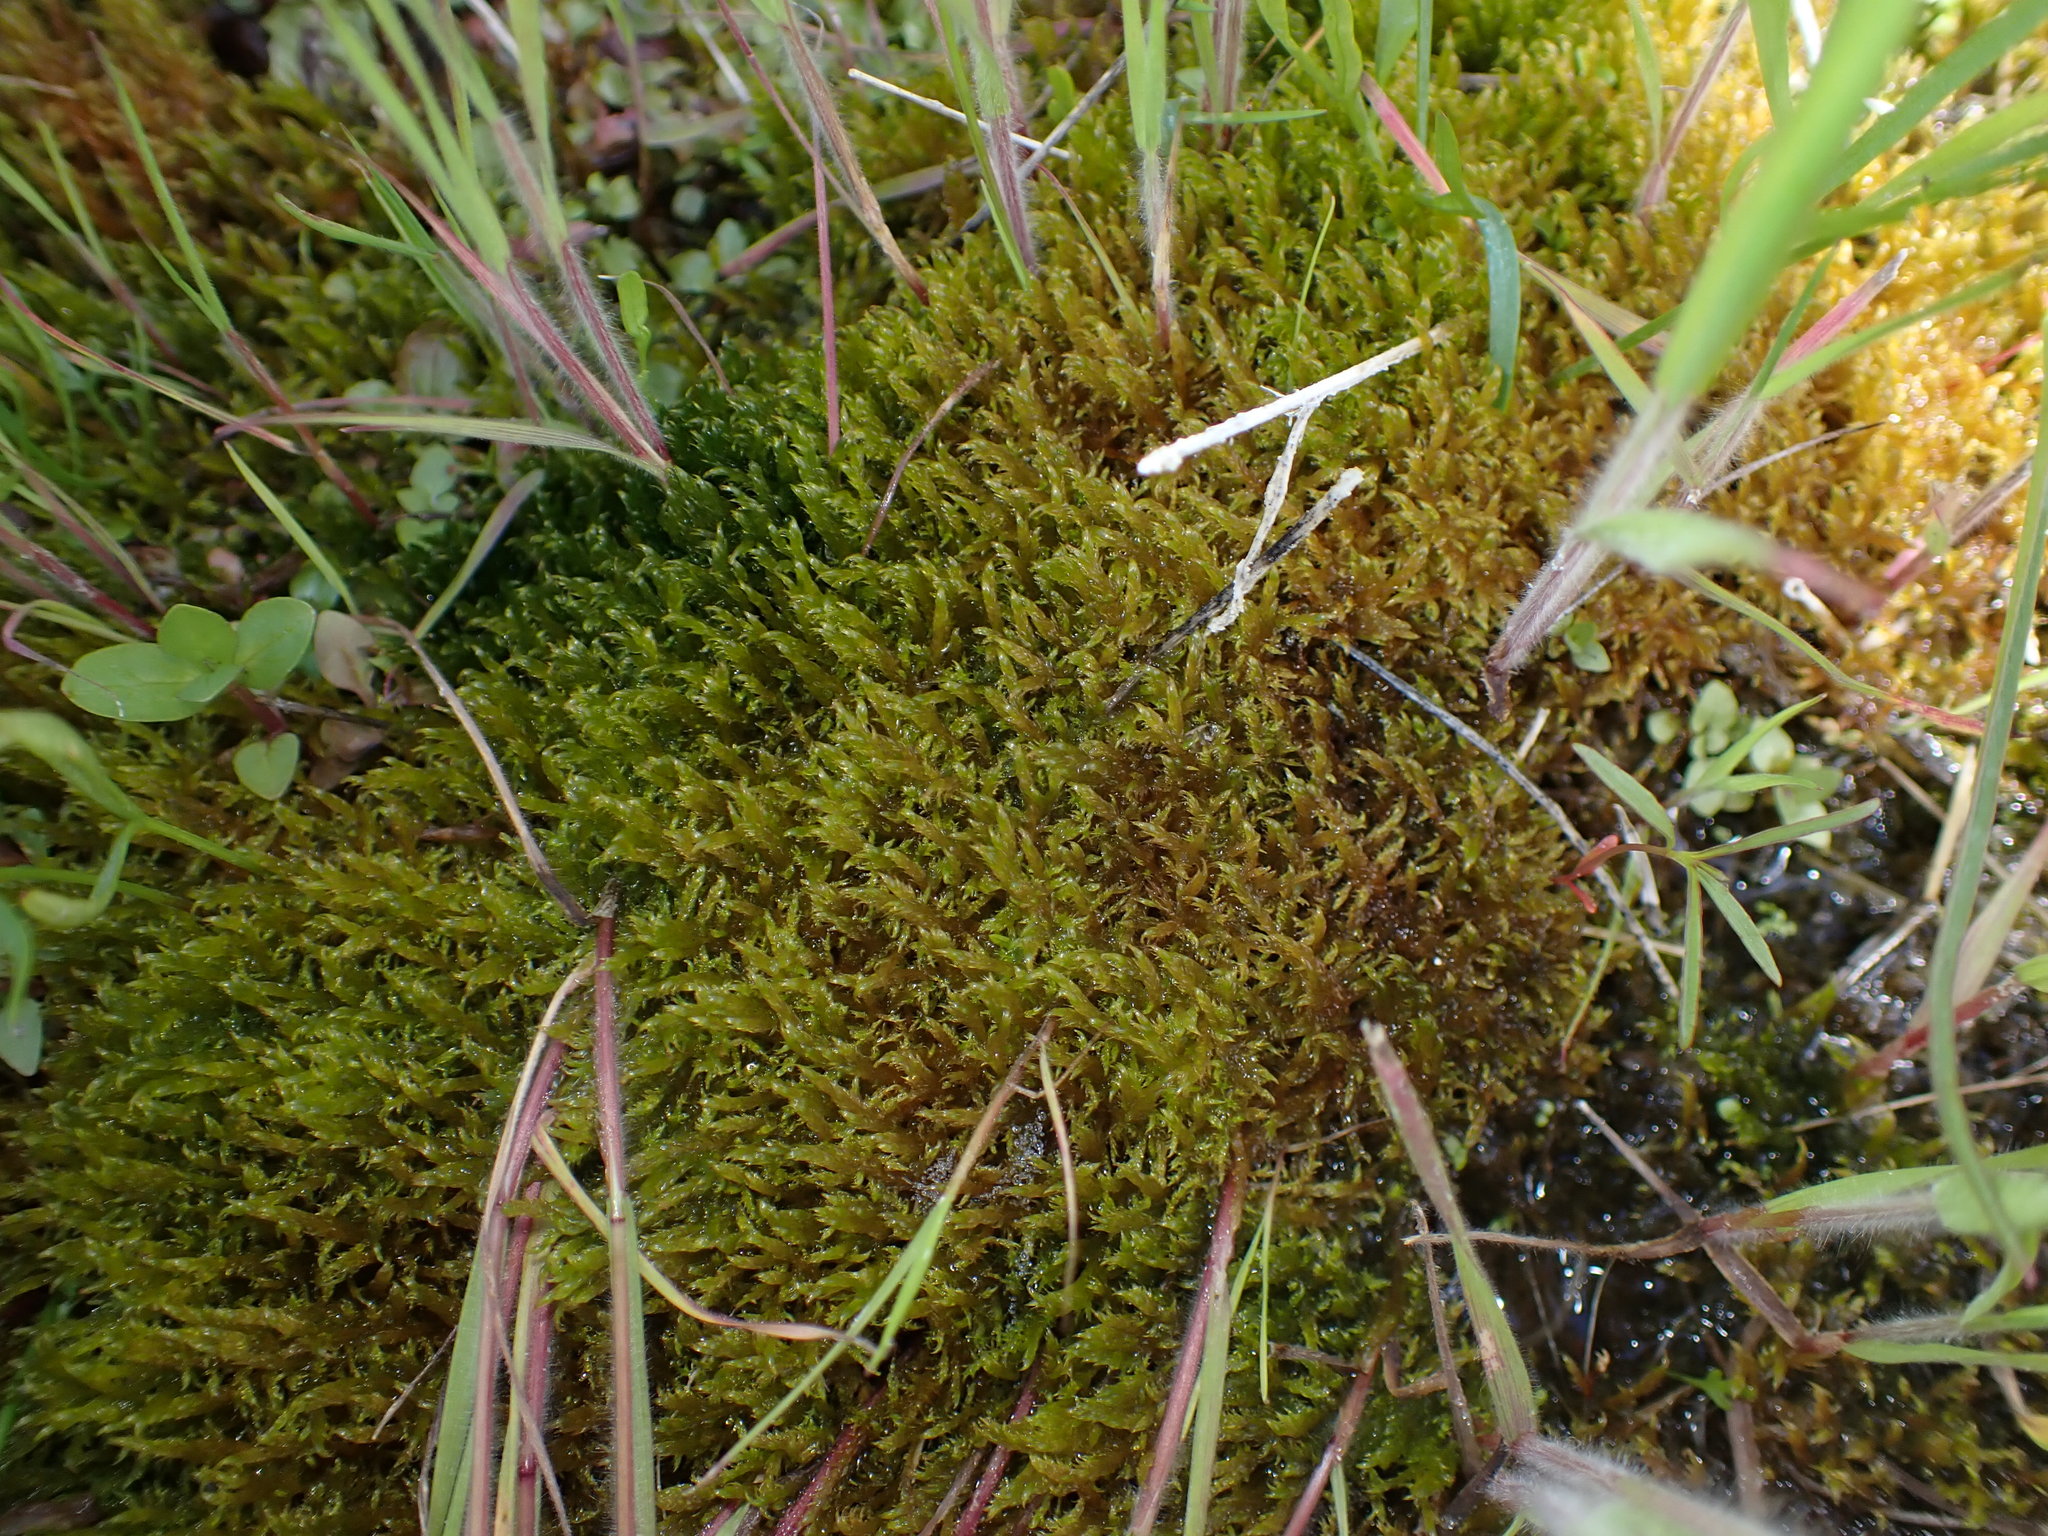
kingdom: Plantae
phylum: Bryophyta
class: Bryopsida
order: Hypnales
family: Amblystegiaceae
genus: Drepanocladus
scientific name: Drepanocladus aduncus
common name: Knieff's hook moss
